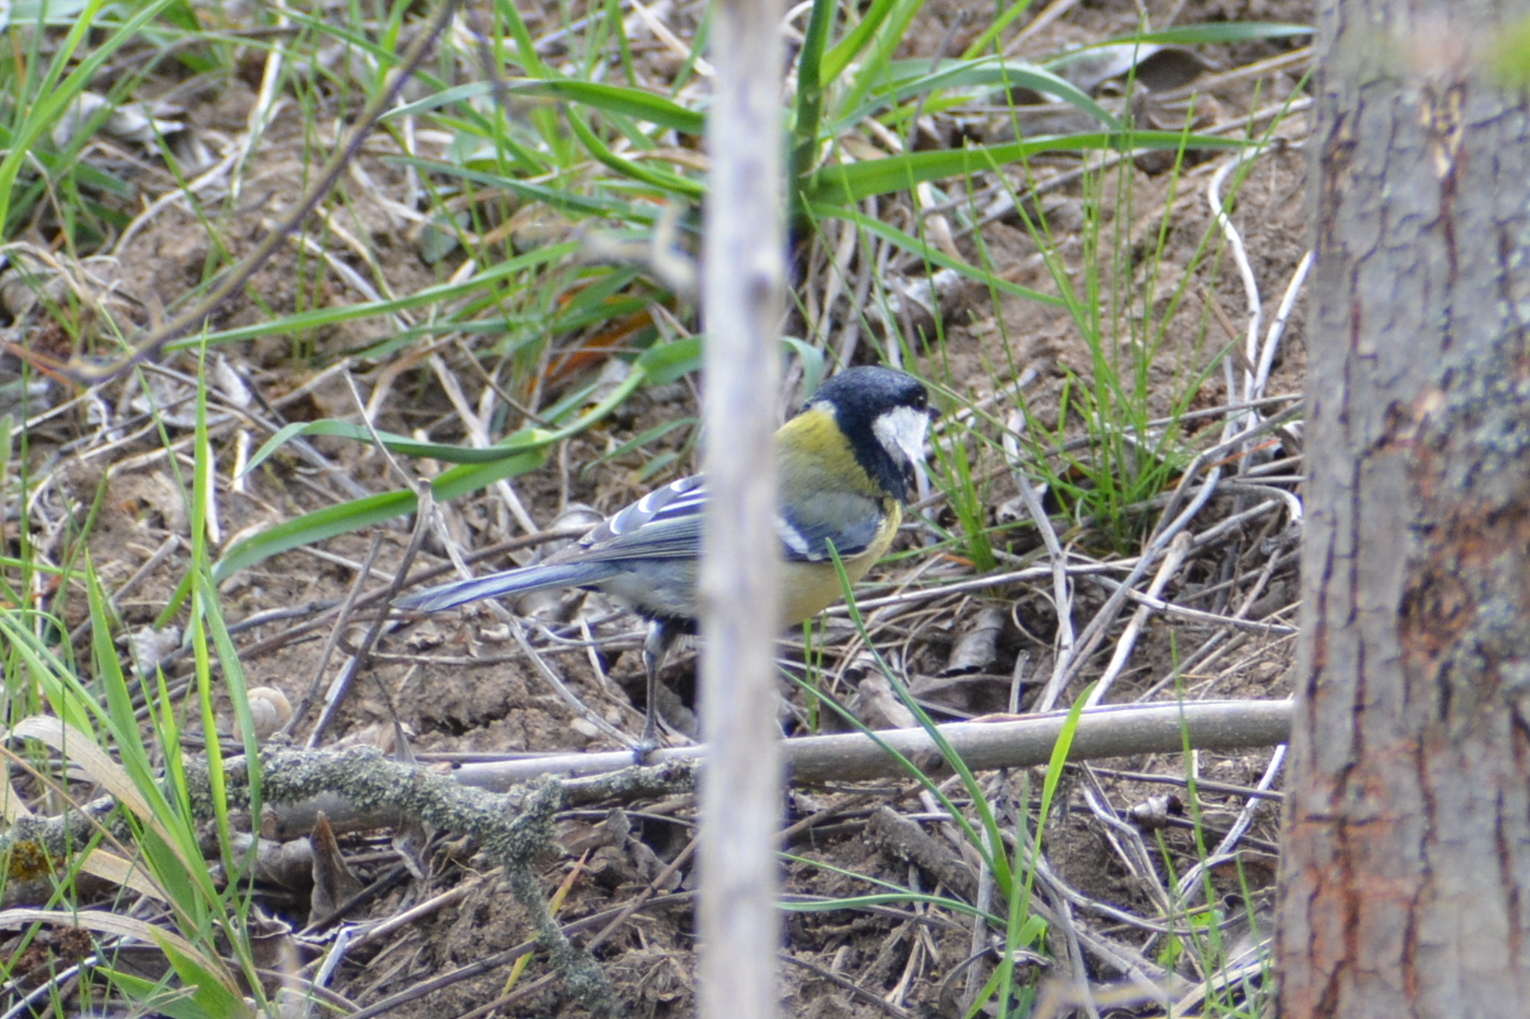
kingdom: Animalia
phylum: Chordata
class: Aves
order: Passeriformes
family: Paridae
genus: Parus
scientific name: Parus major
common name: Great tit
